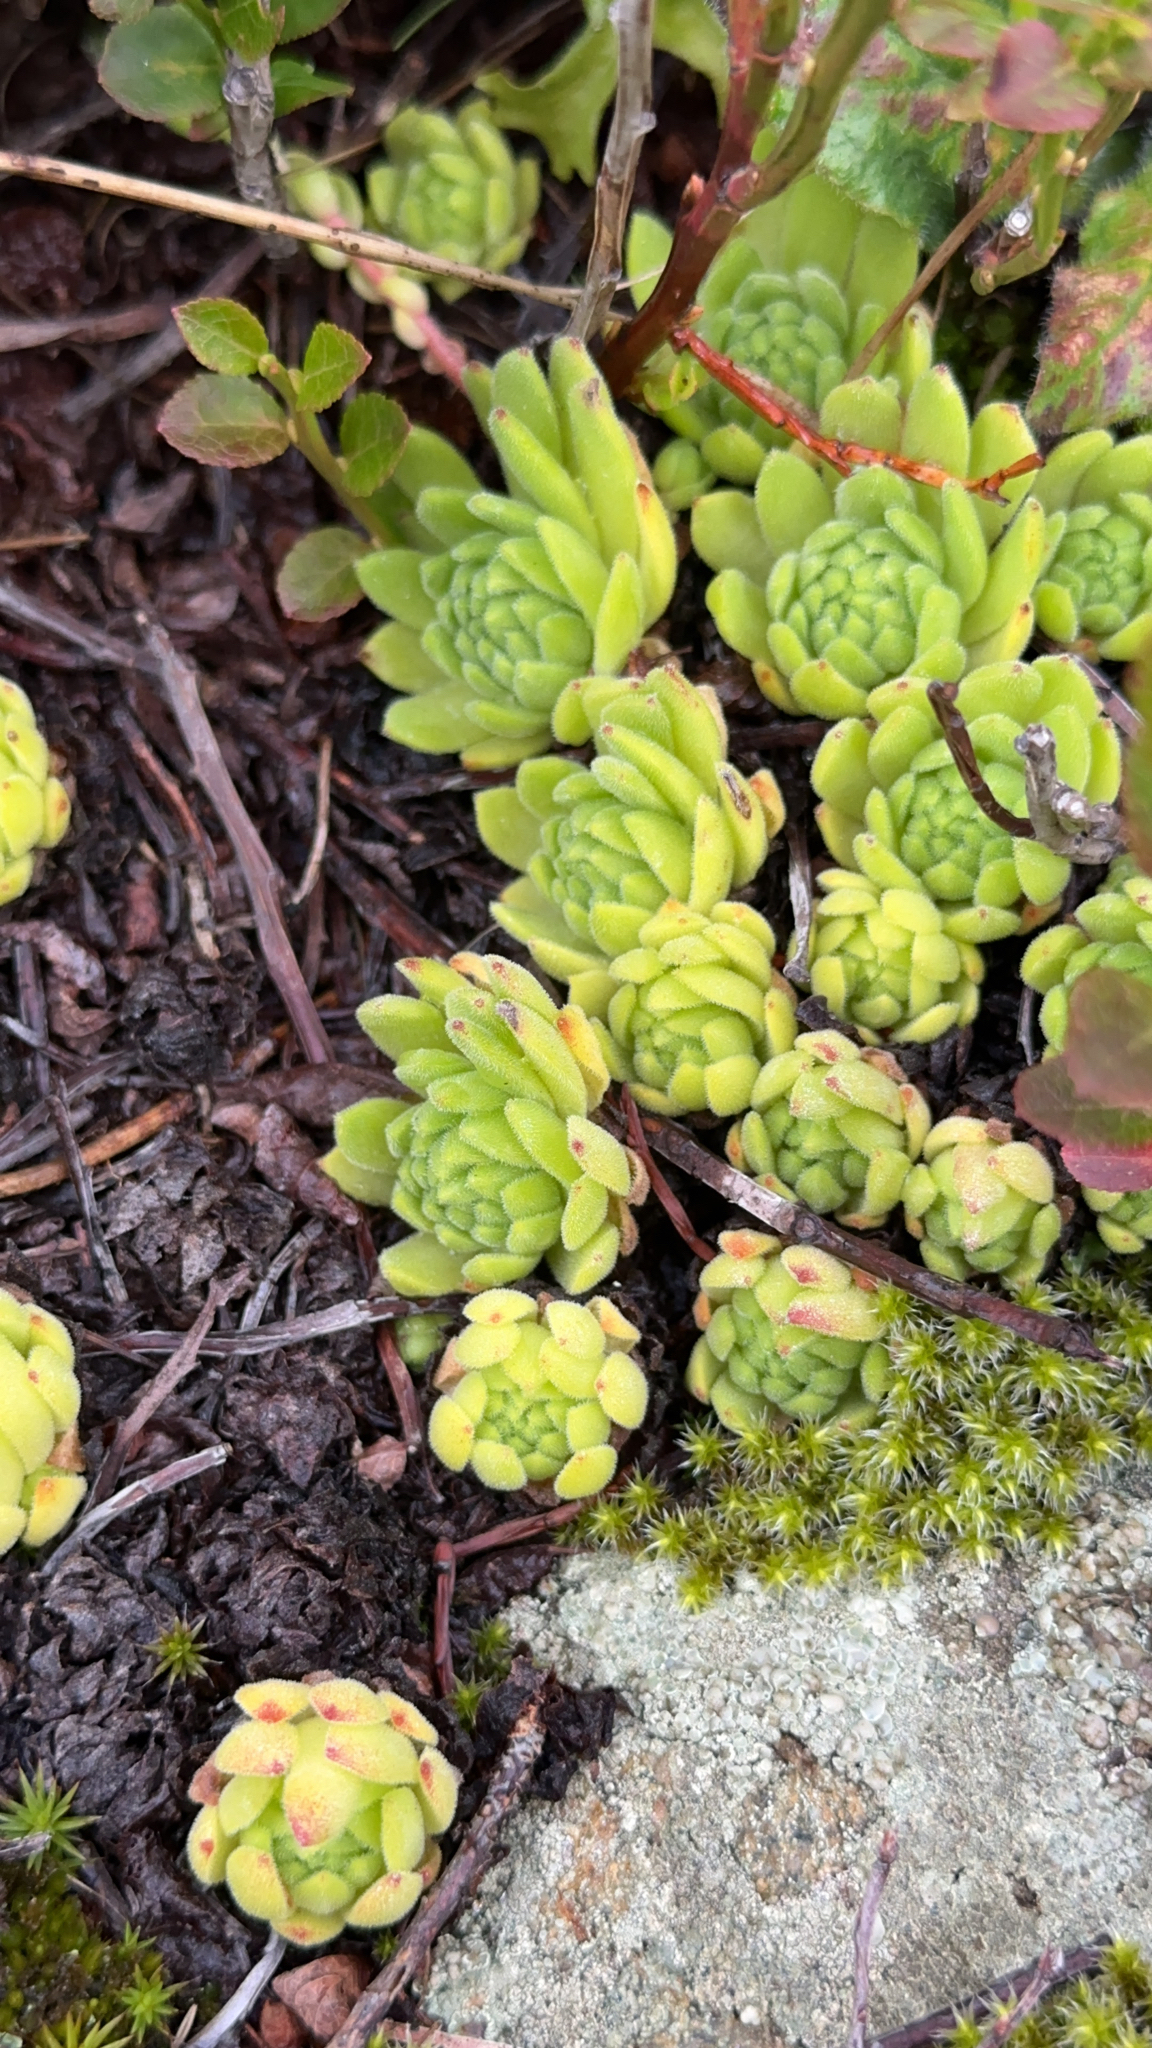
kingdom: Plantae
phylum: Tracheophyta
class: Magnoliopsida
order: Saxifragales
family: Crassulaceae
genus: Sempervivum
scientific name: Sempervivum montanum
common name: Mountain house-leek
